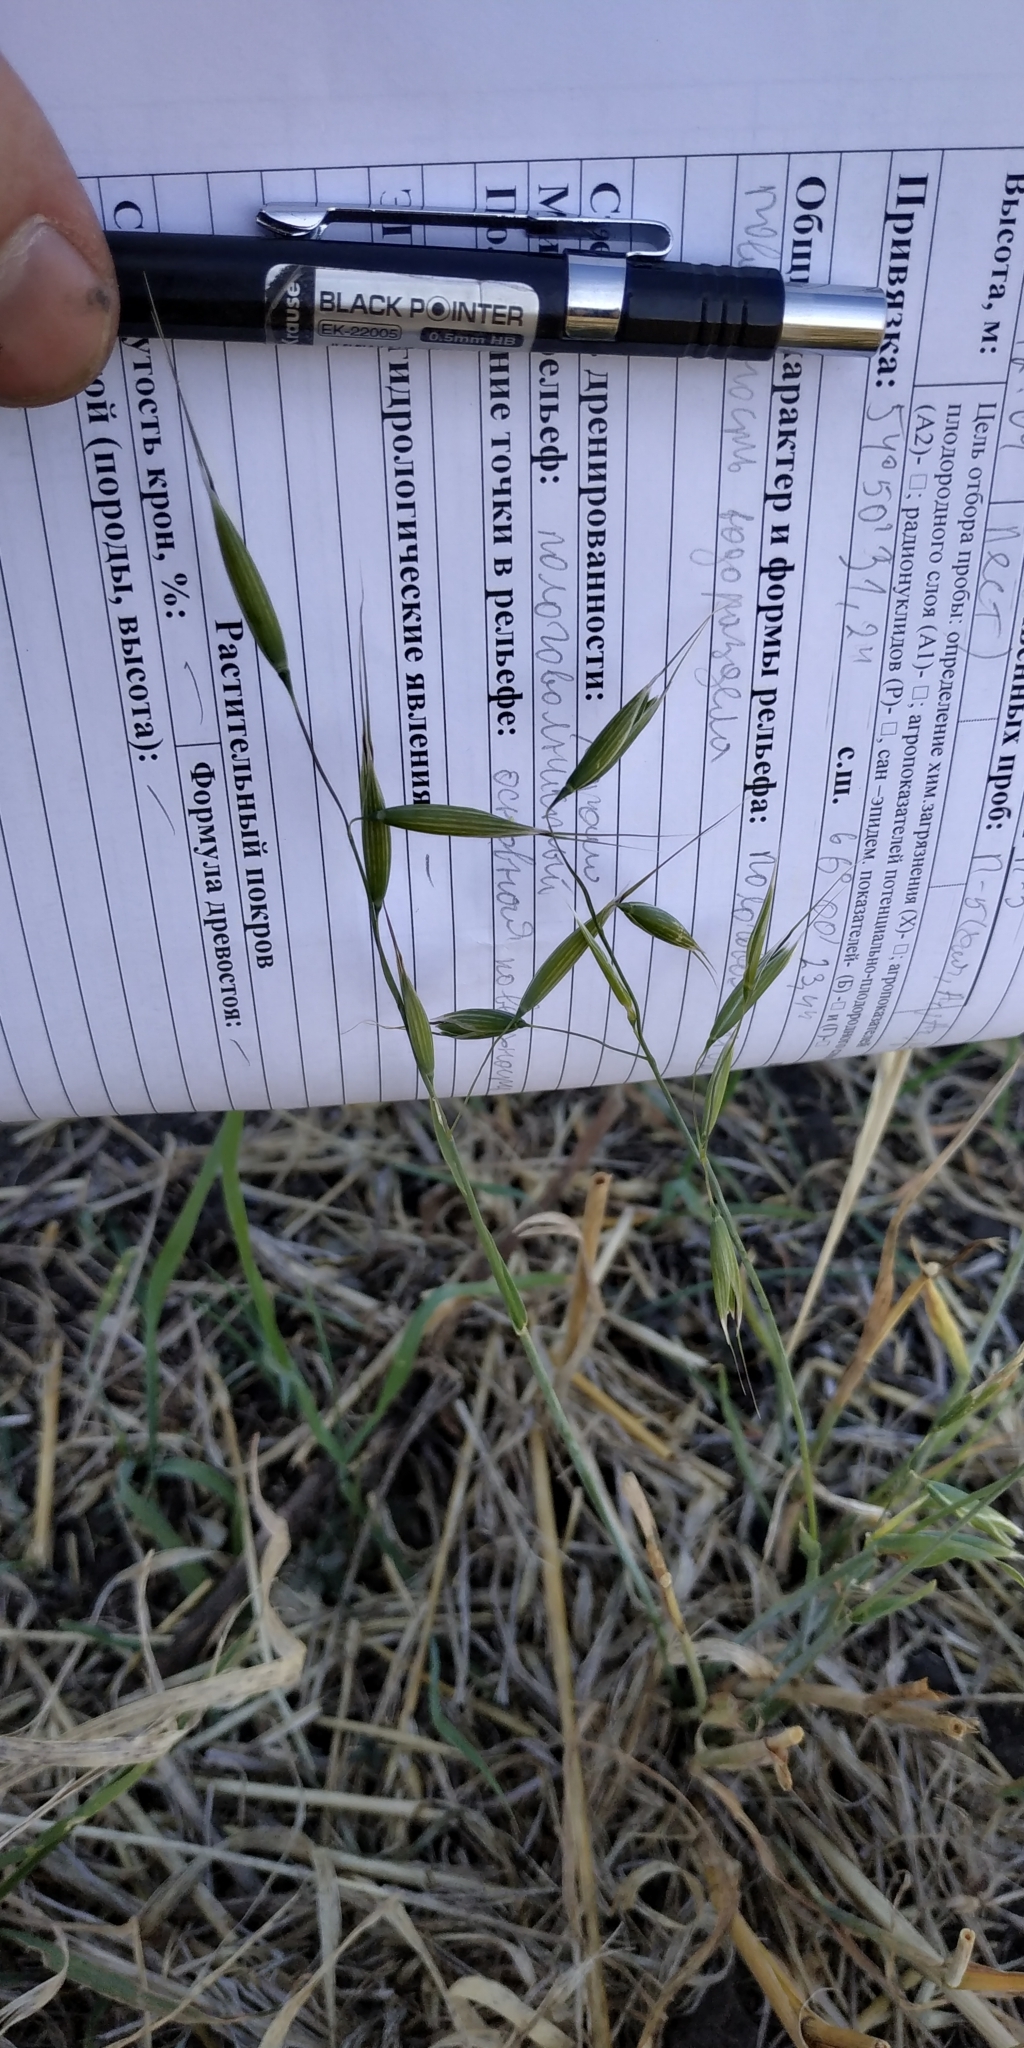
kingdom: Plantae
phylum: Tracheophyta
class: Liliopsida
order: Poales
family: Poaceae
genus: Avena
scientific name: Avena fatua
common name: Wild oat
